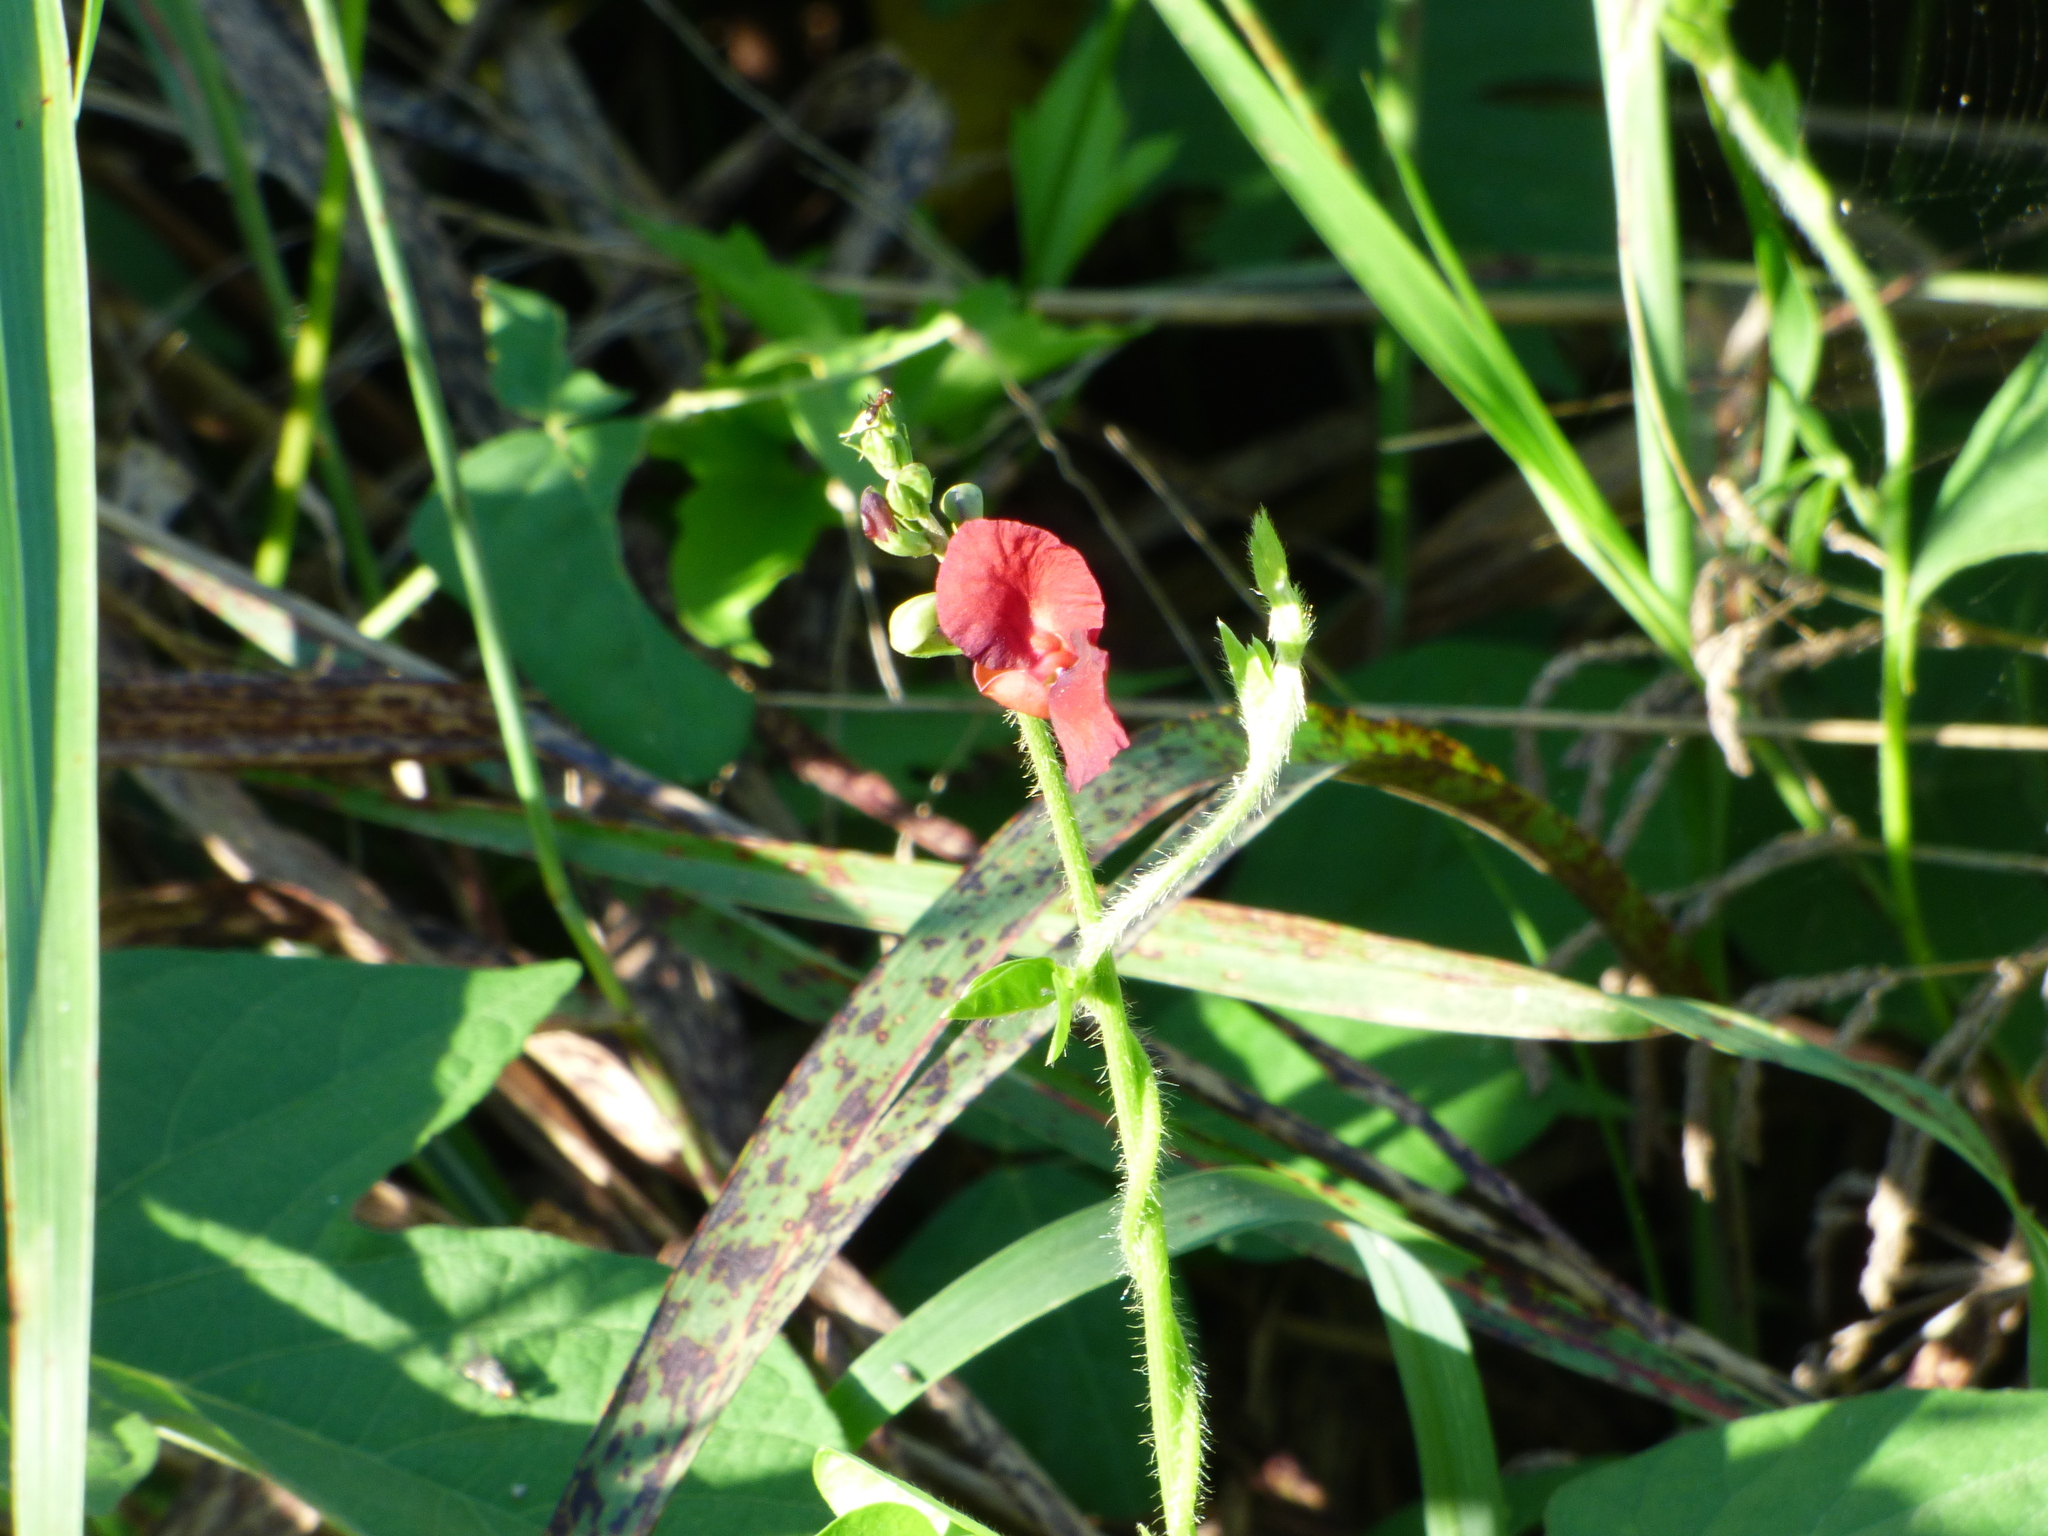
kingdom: Plantae
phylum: Tracheophyta
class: Magnoliopsida
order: Fabales
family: Fabaceae
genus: Macroptilium
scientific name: Macroptilium lathyroides
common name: Wild bushbean
